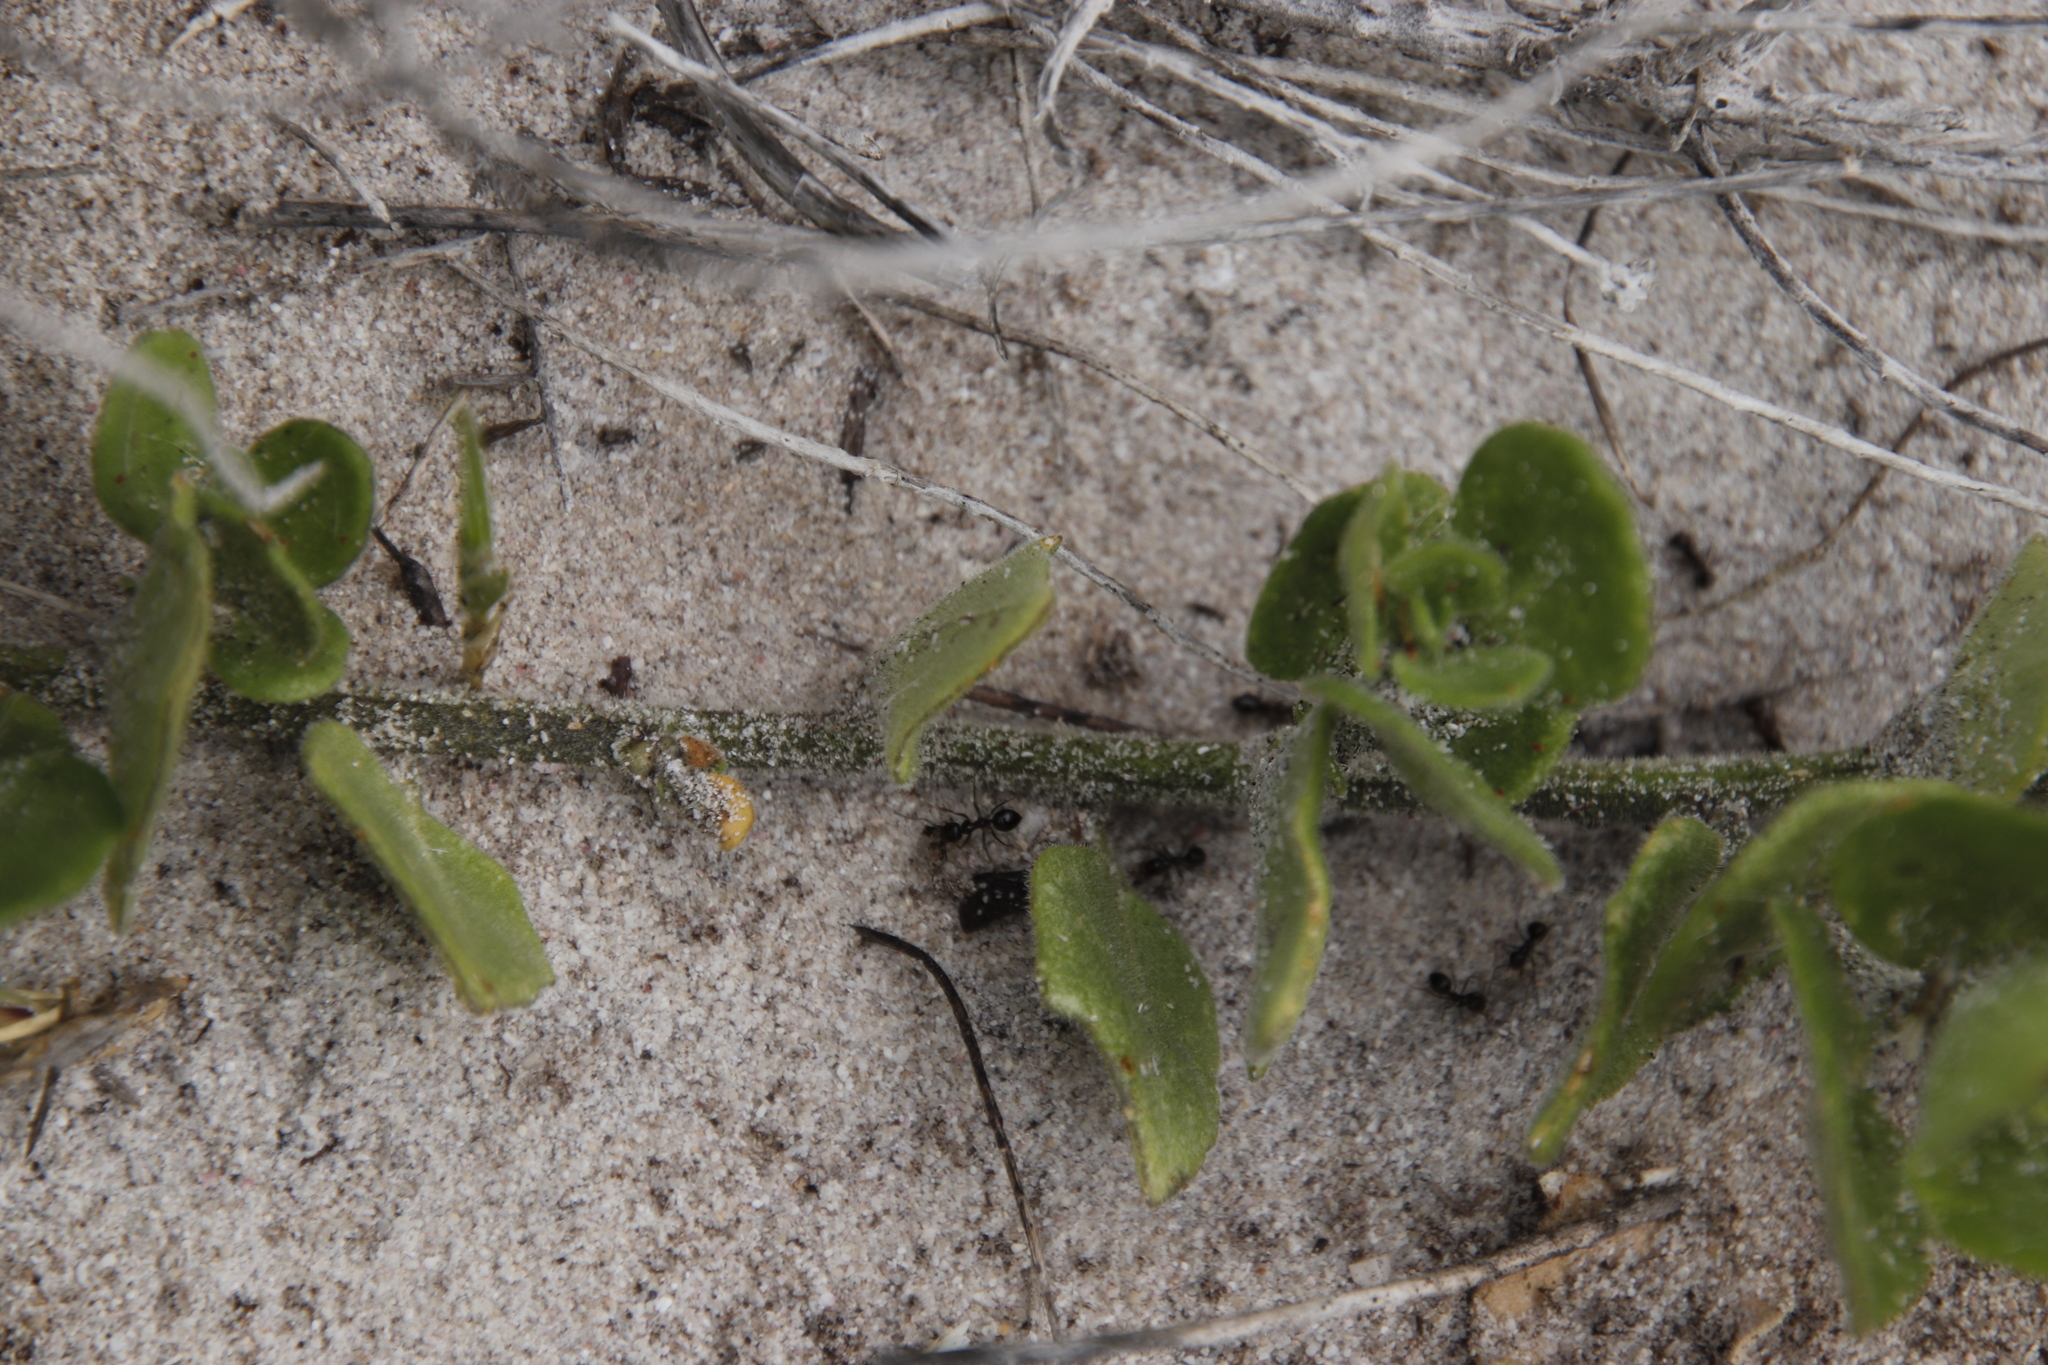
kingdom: Plantae
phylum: Tracheophyta
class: Magnoliopsida
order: Solanales
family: Solanaceae
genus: Solanum
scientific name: Solanum africanum
